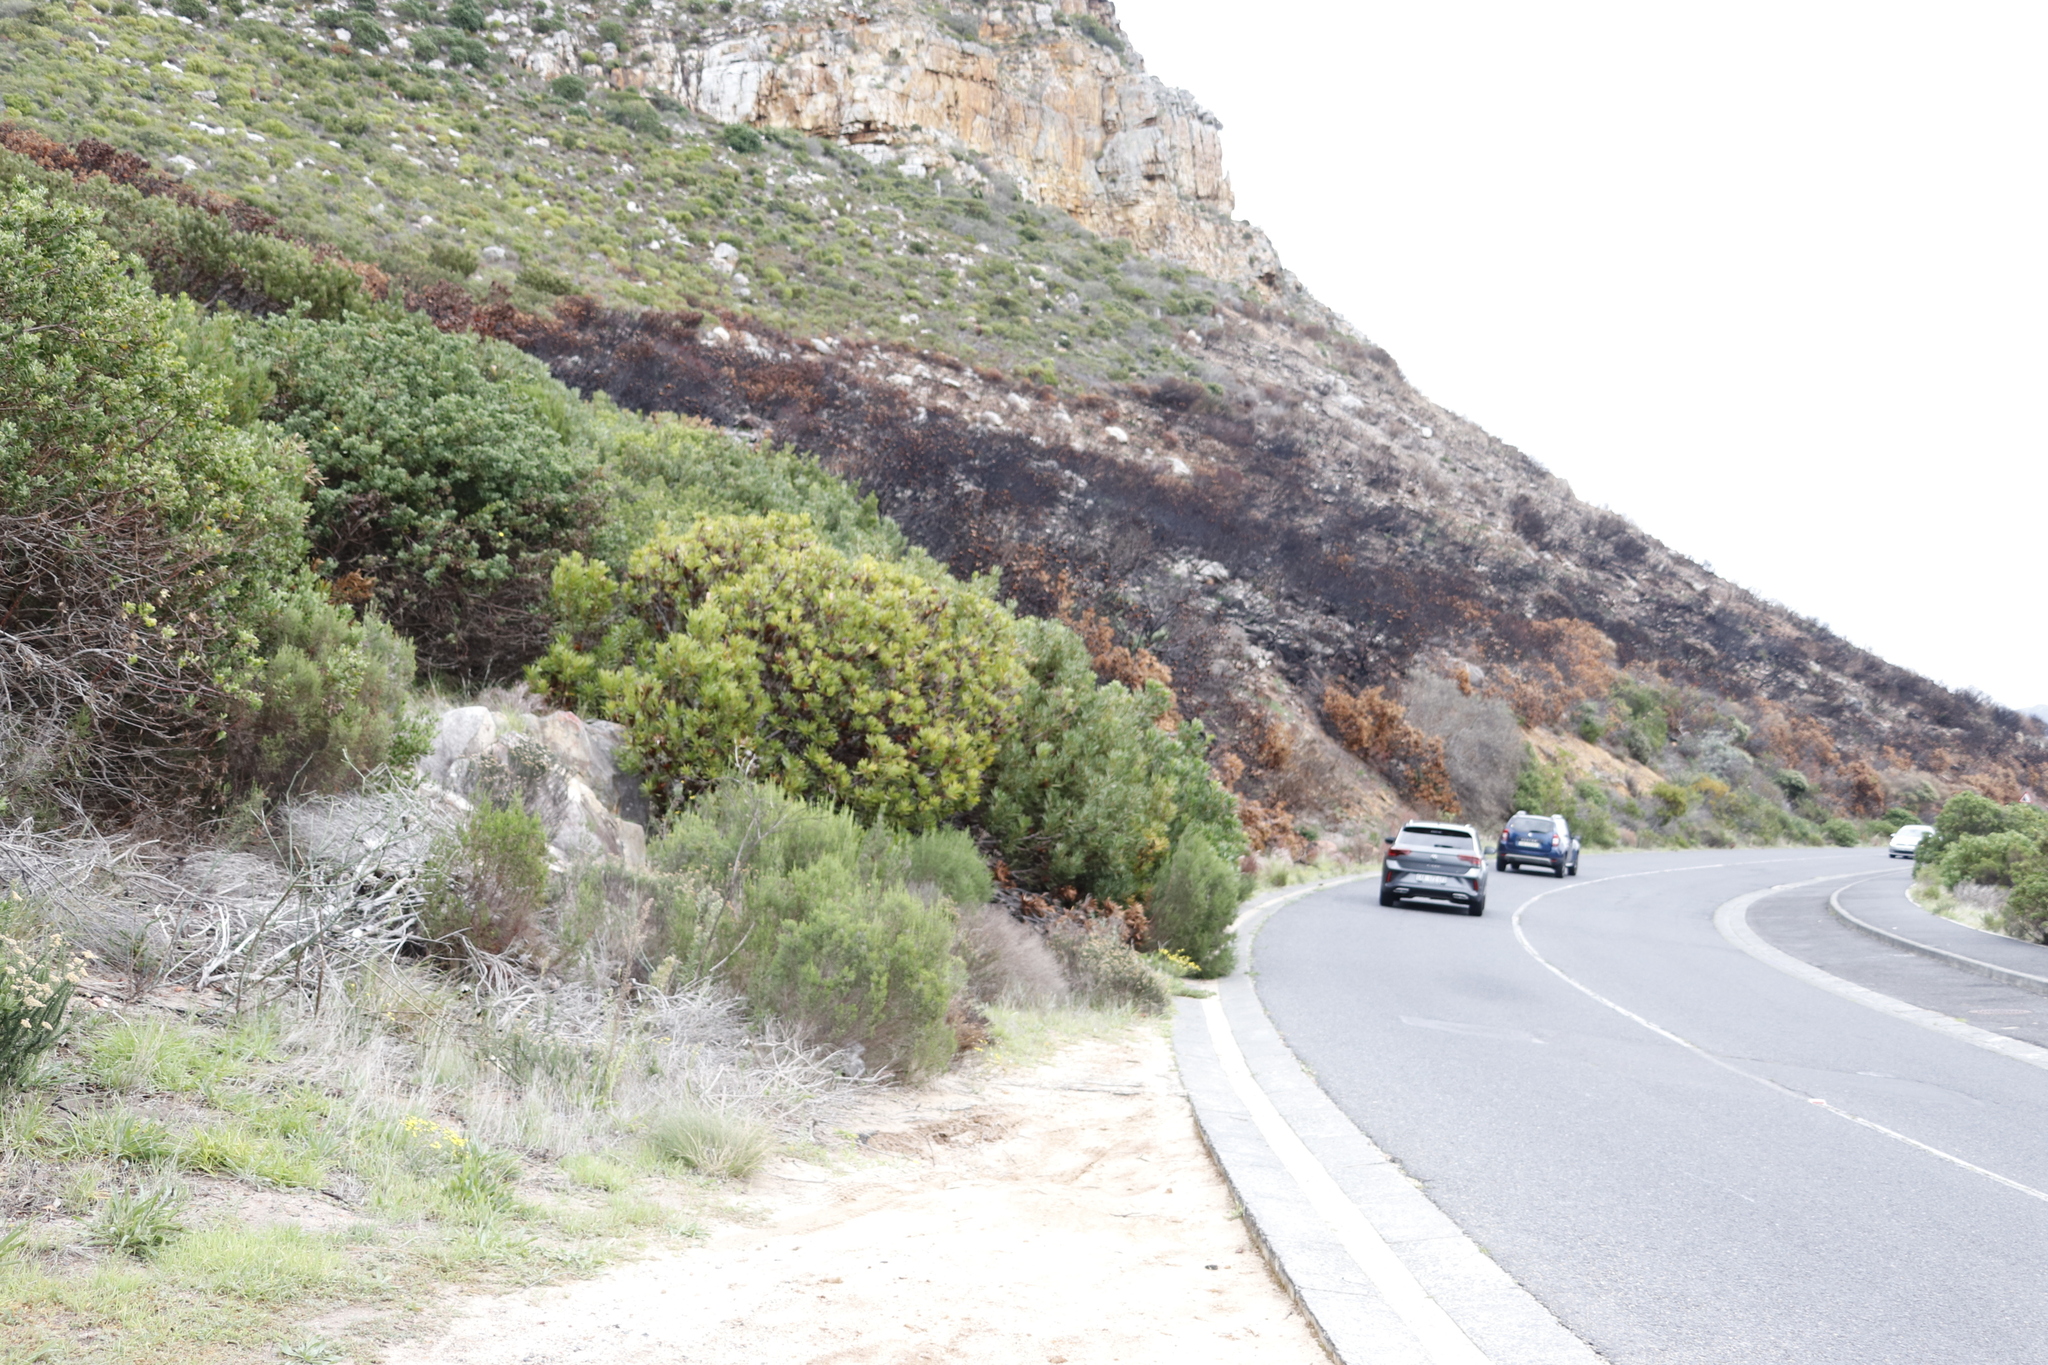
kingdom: Plantae
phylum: Tracheophyta
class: Magnoliopsida
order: Proteales
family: Proteaceae
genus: Protea
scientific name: Protea repens
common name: Sugarbush
